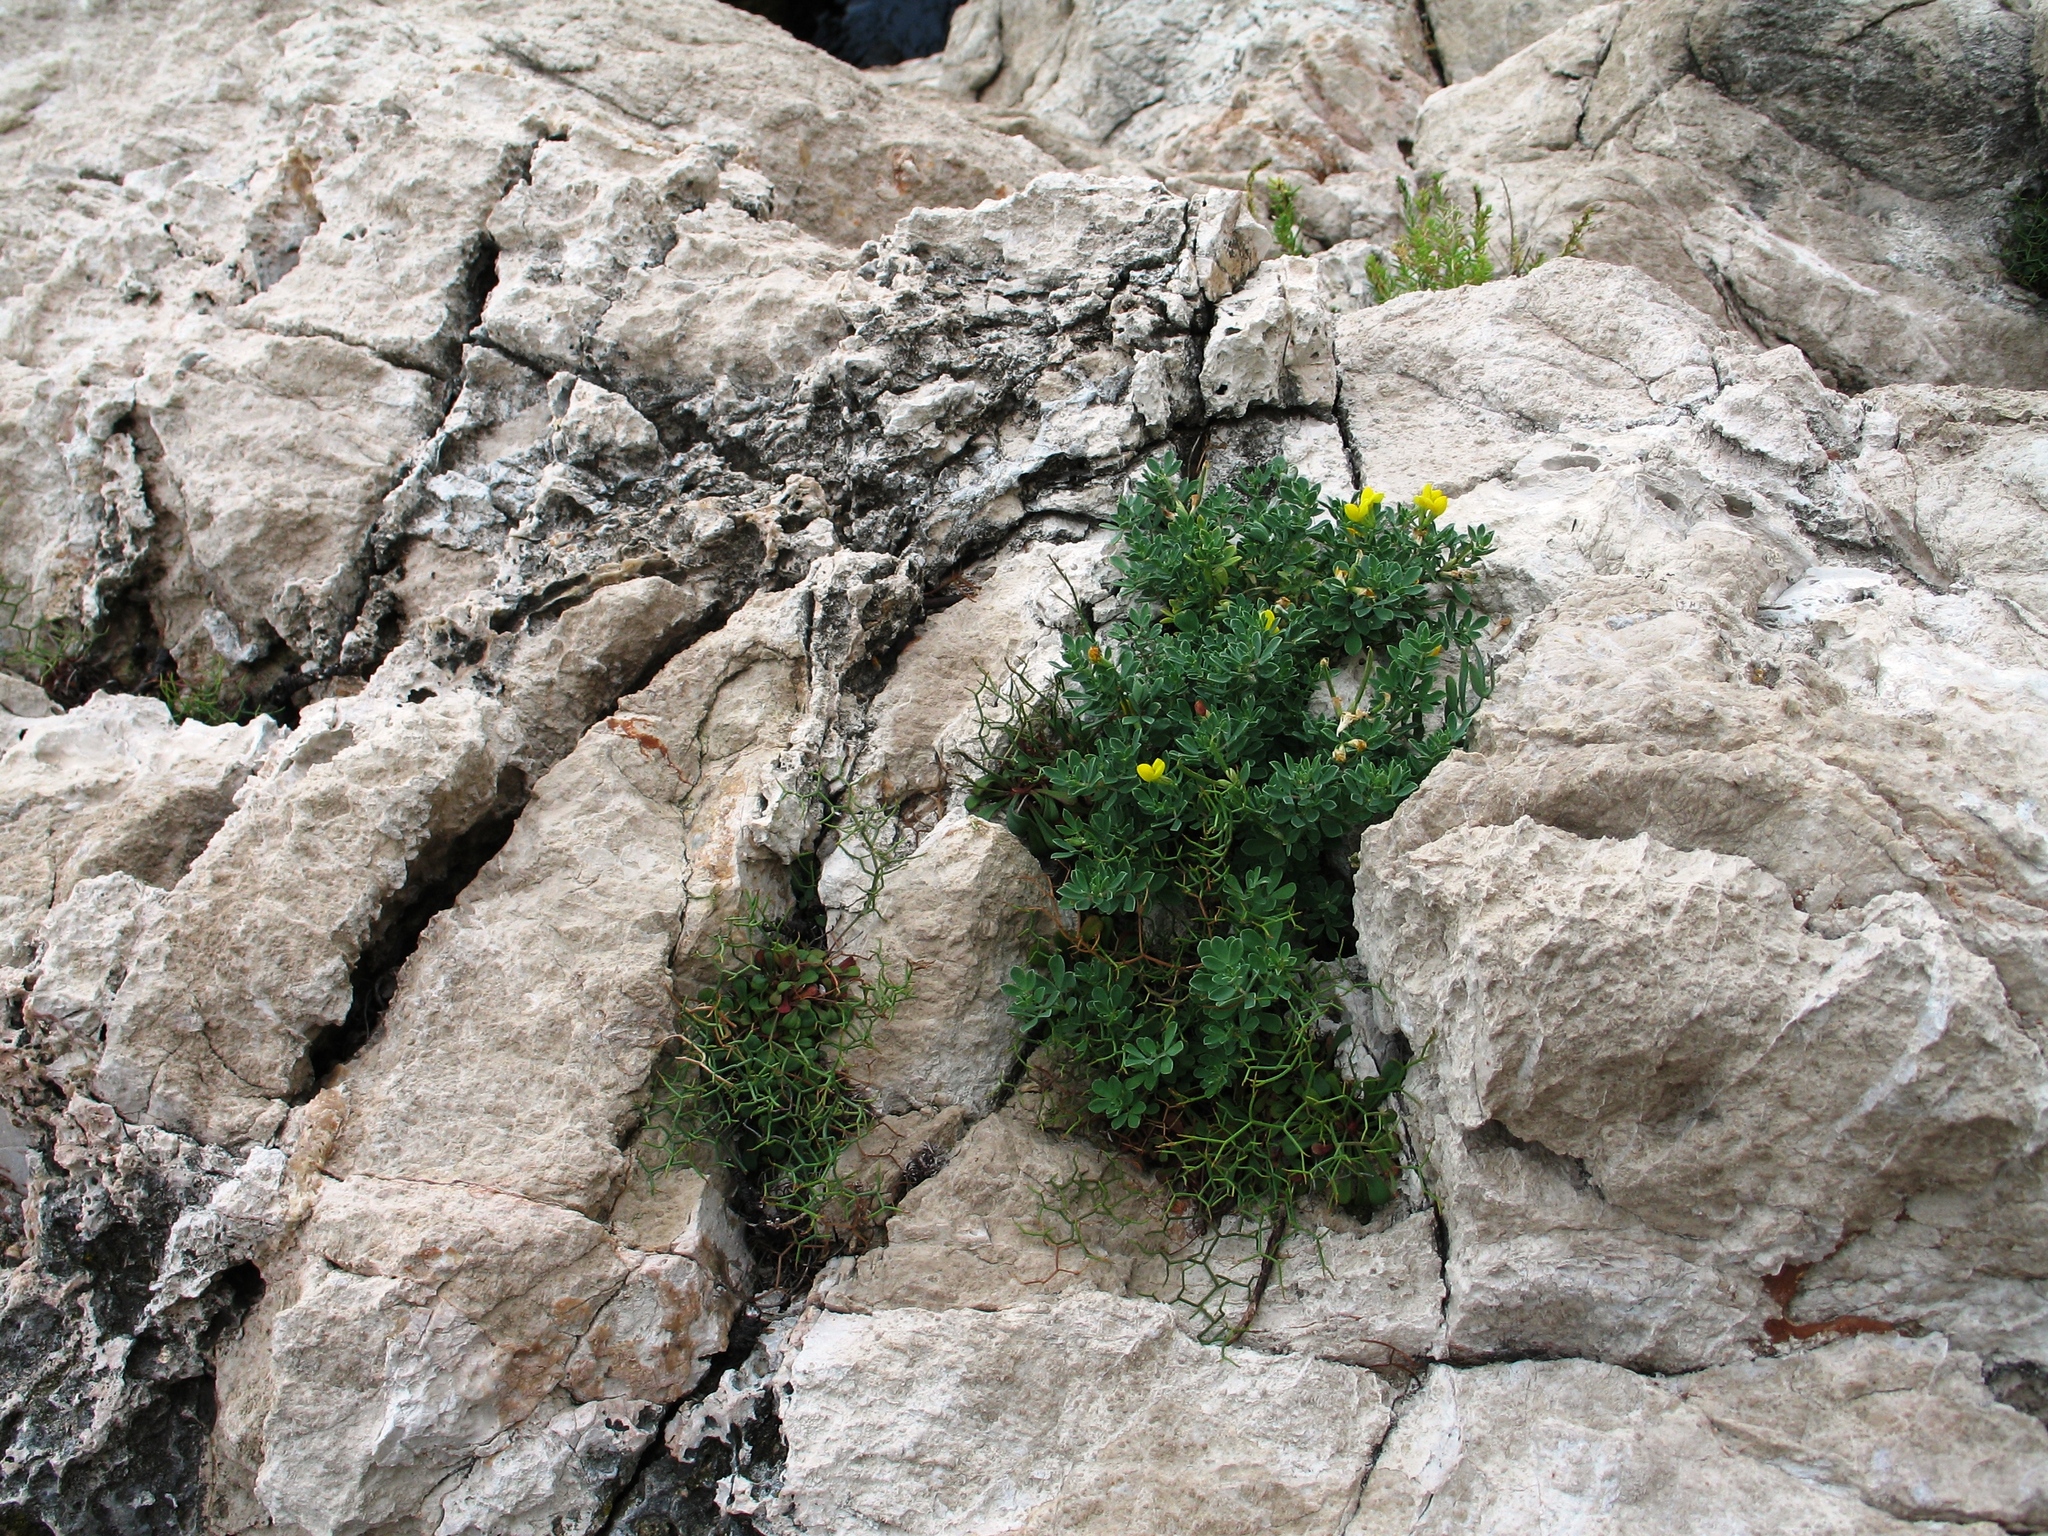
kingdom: Plantae
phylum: Tracheophyta
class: Magnoliopsida
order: Fabales
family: Fabaceae
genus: Lotus
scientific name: Lotus cytisoides
